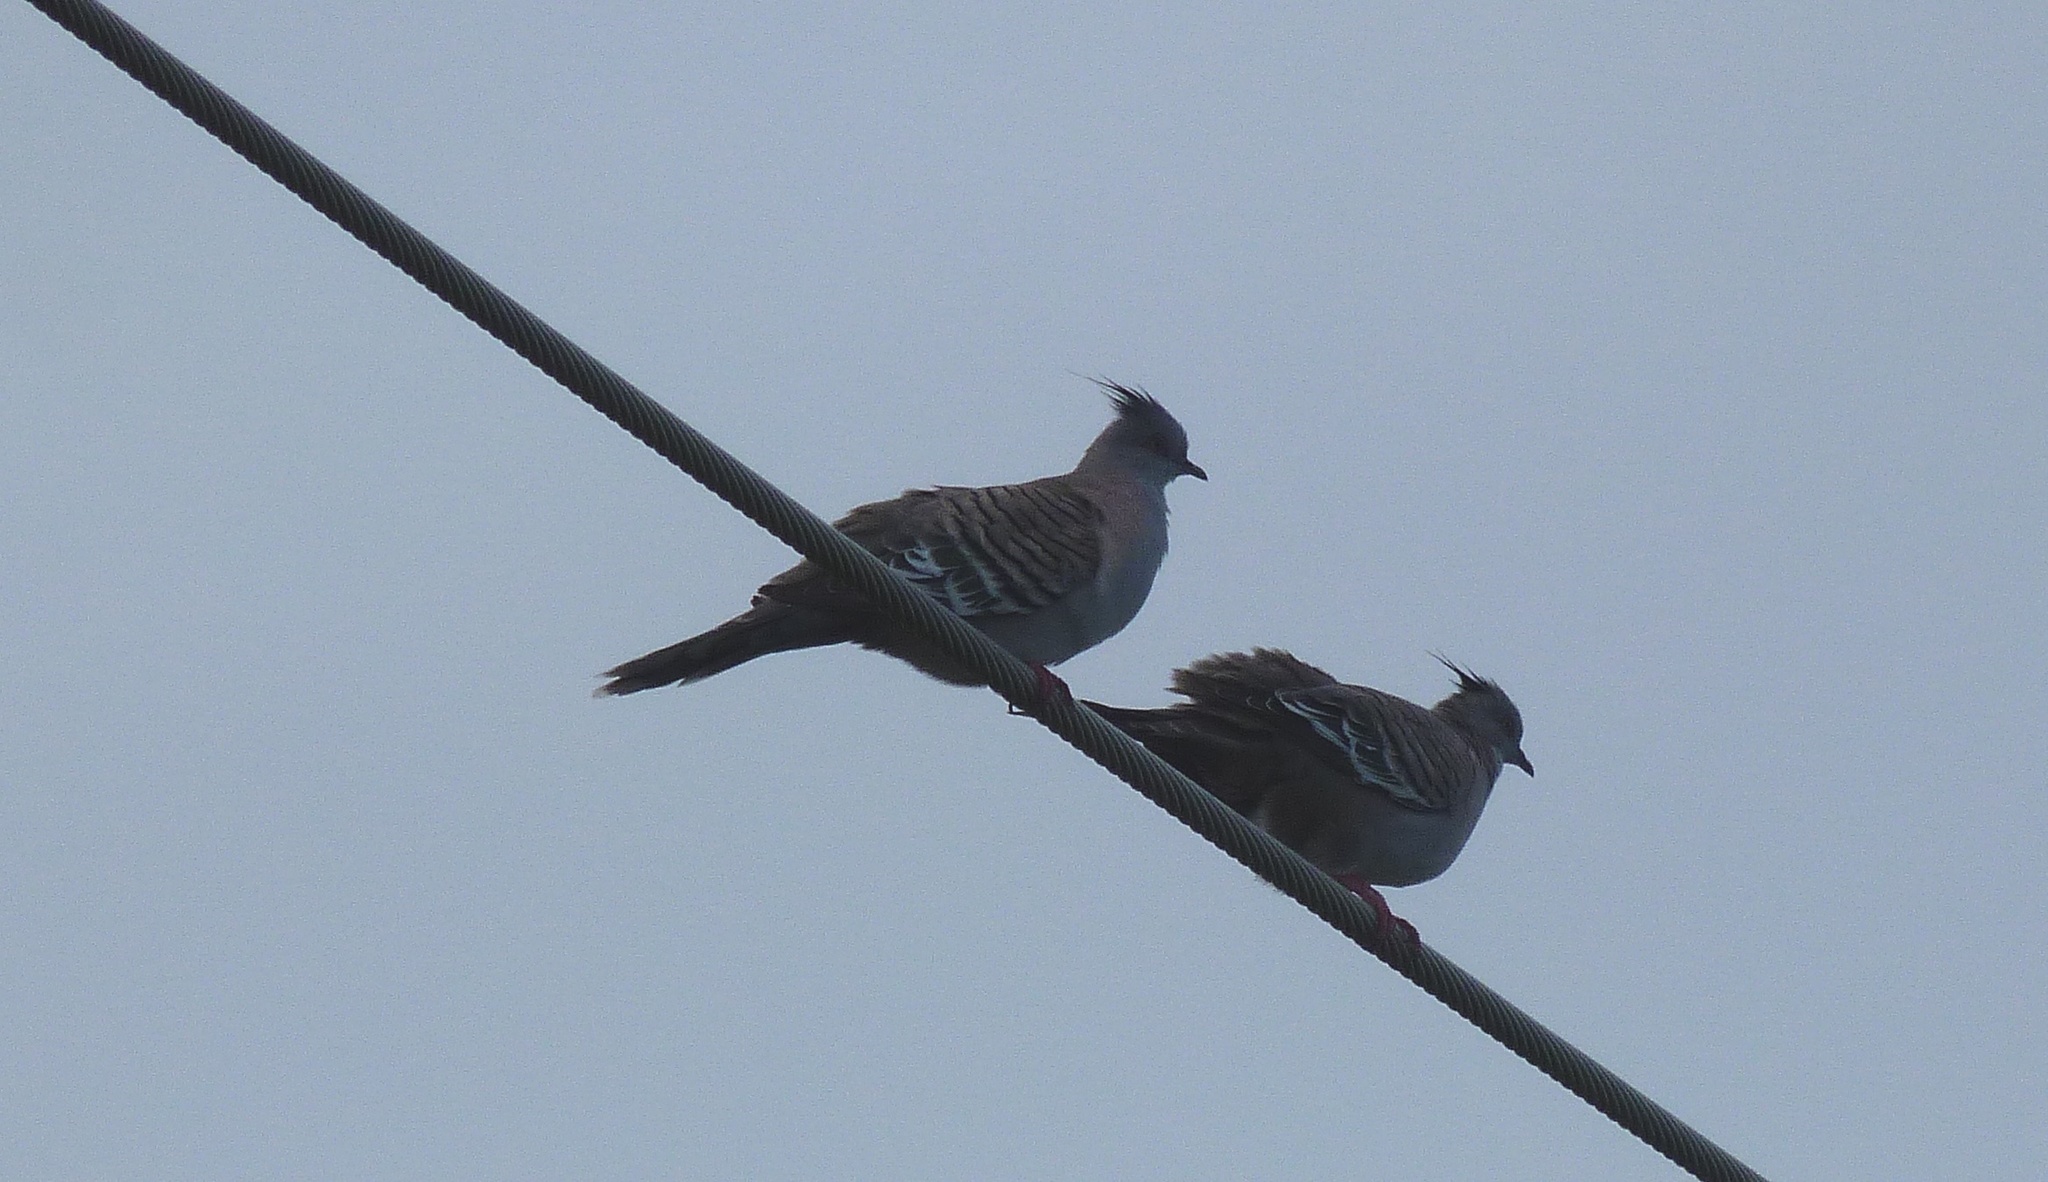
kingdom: Animalia
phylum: Chordata
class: Aves
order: Columbiformes
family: Columbidae
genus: Ocyphaps
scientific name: Ocyphaps lophotes
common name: Crested pigeon
